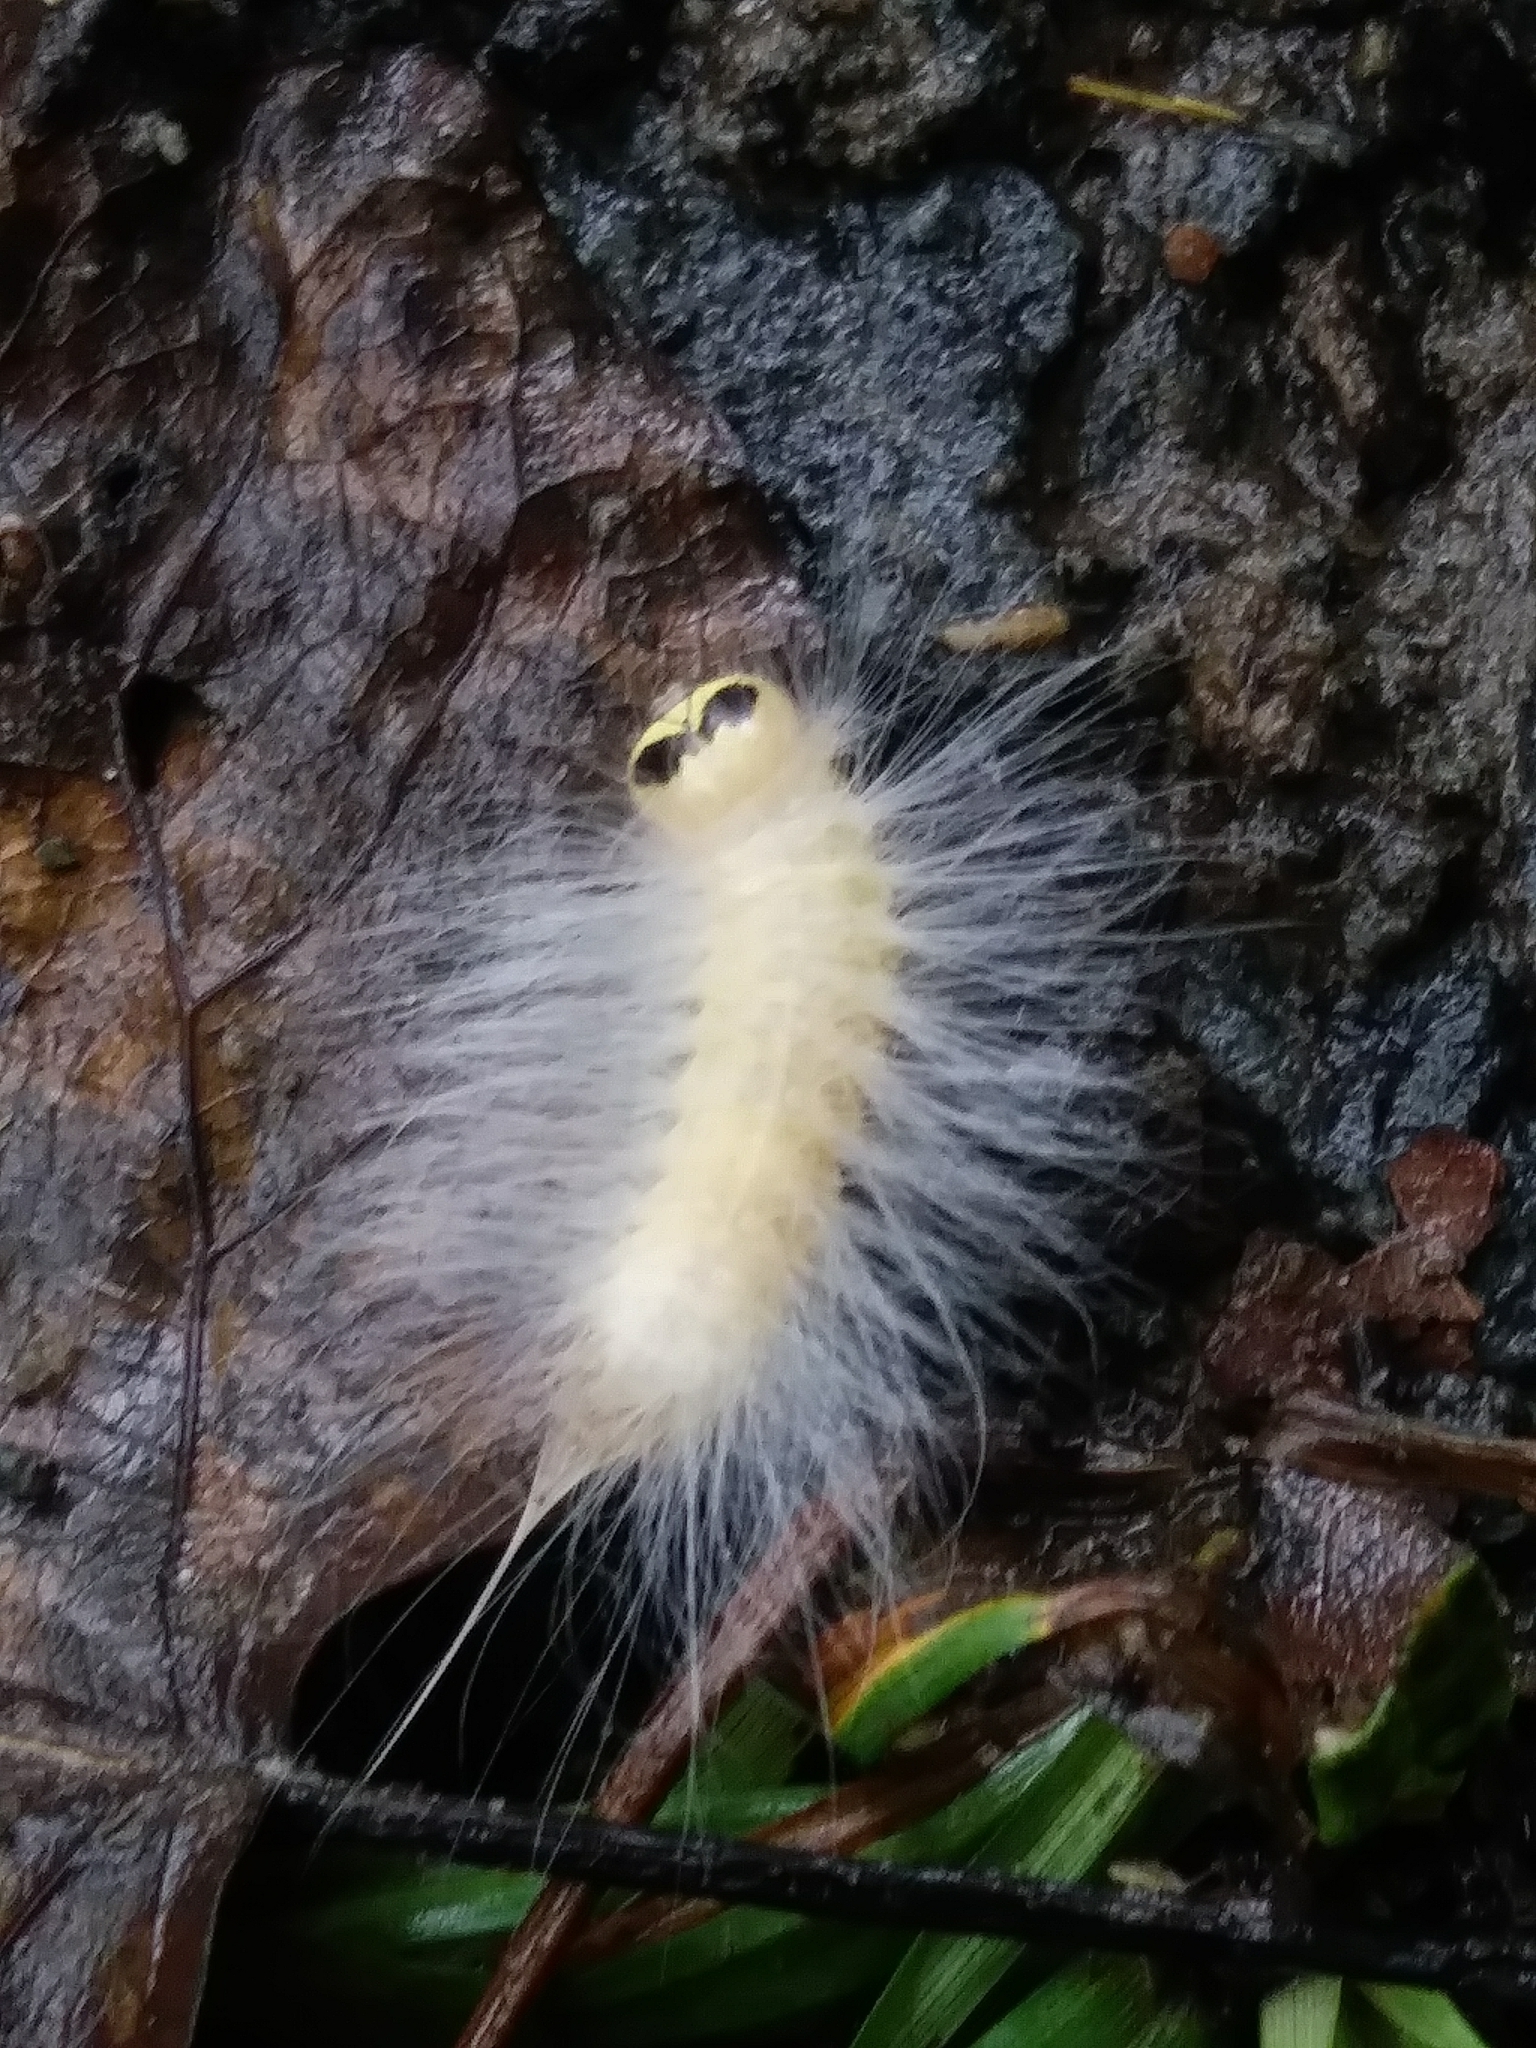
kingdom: Animalia
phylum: Arthropoda
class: Insecta
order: Lepidoptera
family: Noctuidae
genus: Charadra
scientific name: Charadra deridens
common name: Marbled tuffet
